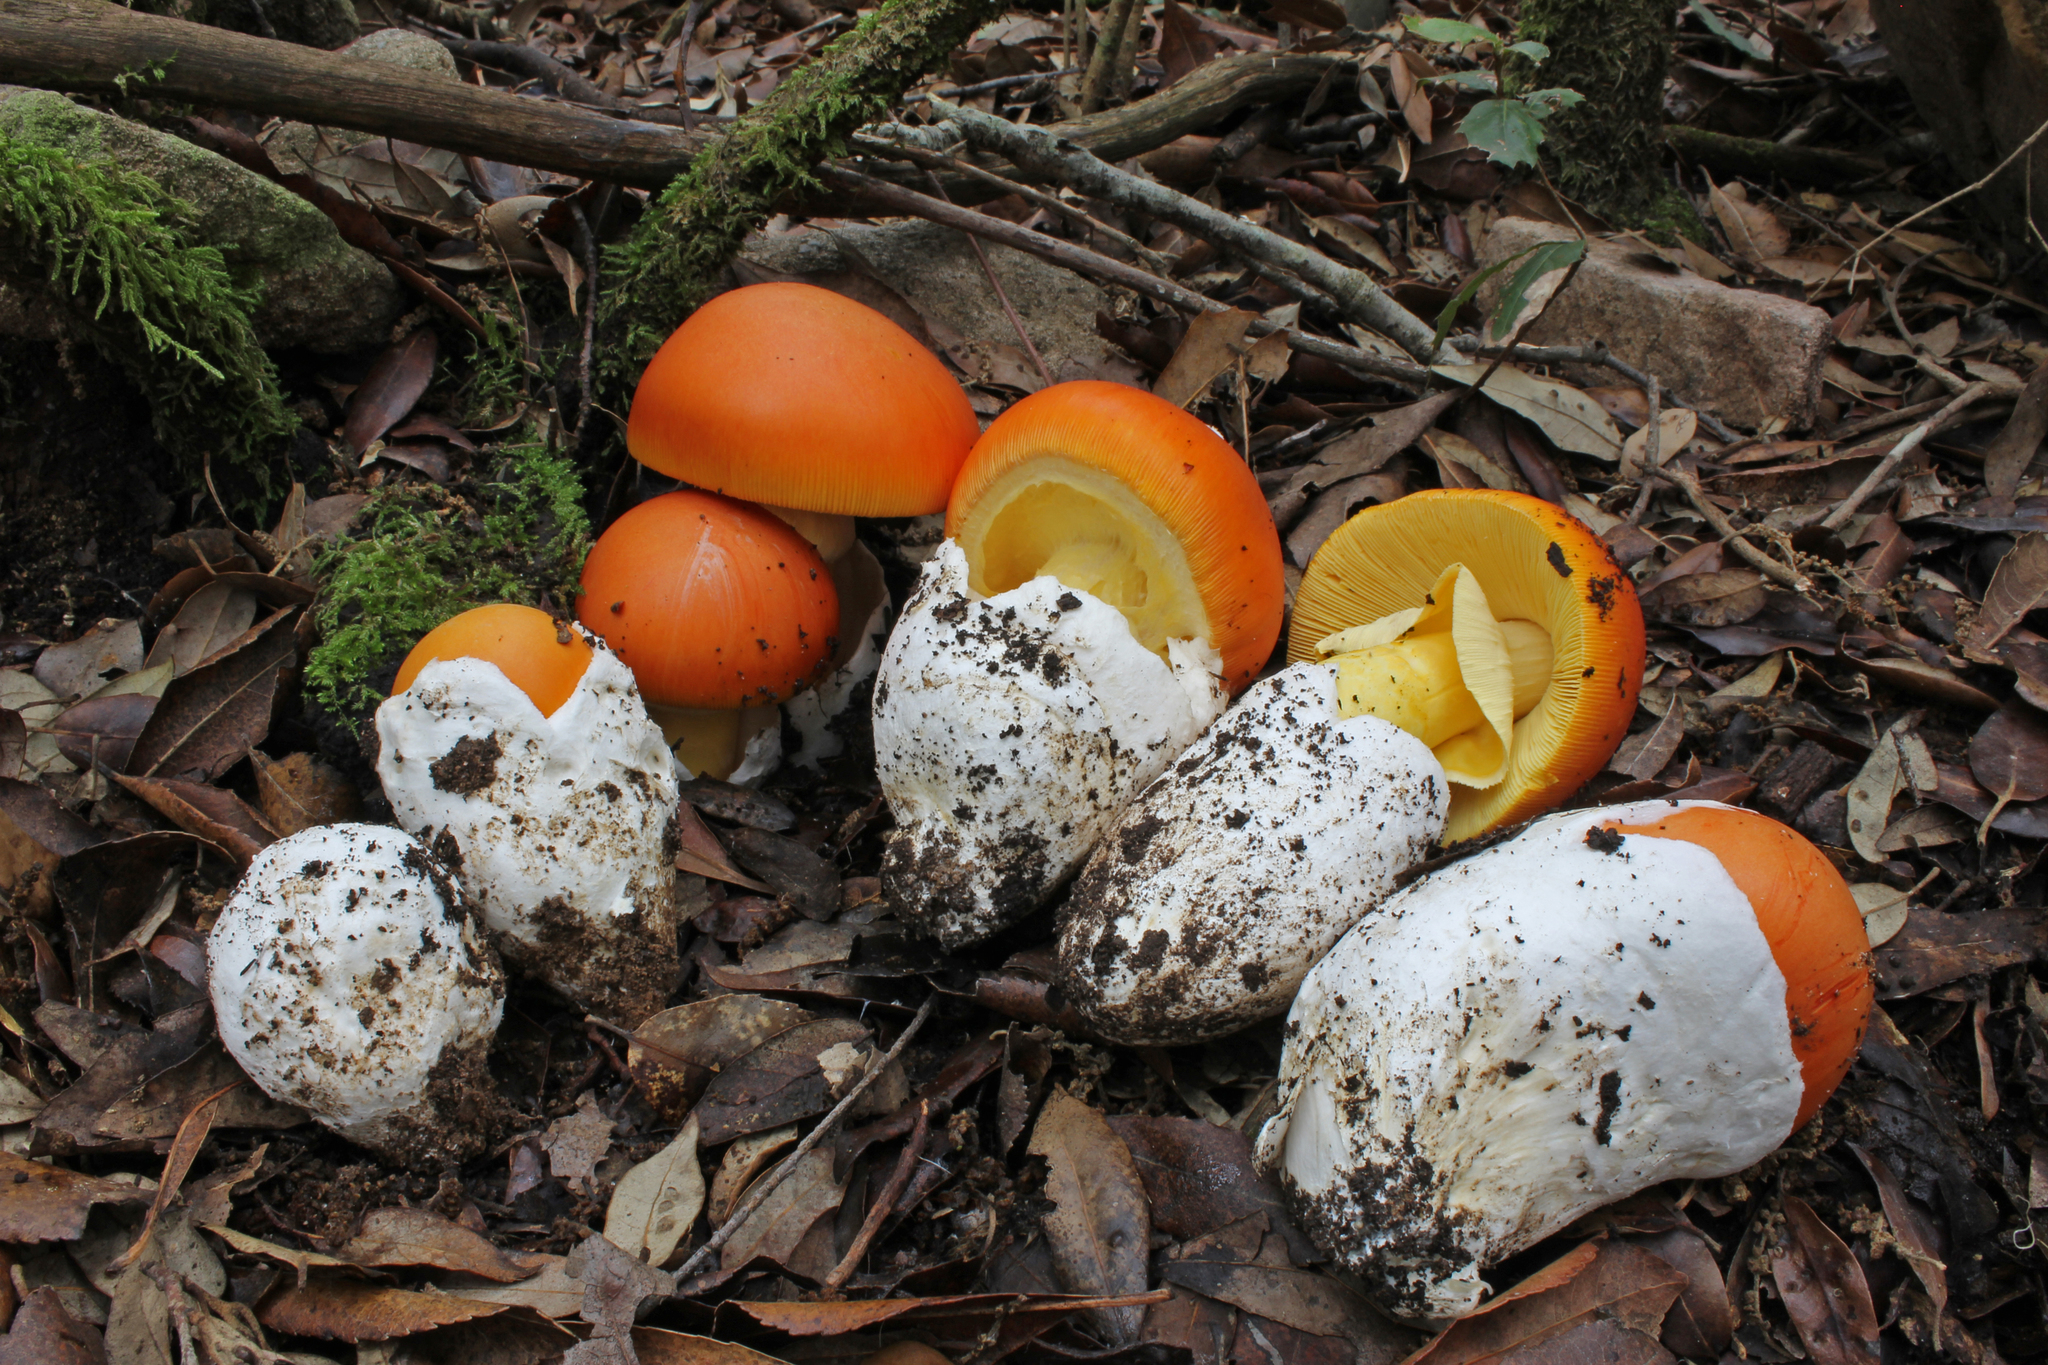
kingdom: Fungi
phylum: Basidiomycota
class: Agaricomycetes
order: Agaricales
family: Amanitaceae
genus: Amanita
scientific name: Amanita caesarea
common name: Caesar's amanita
